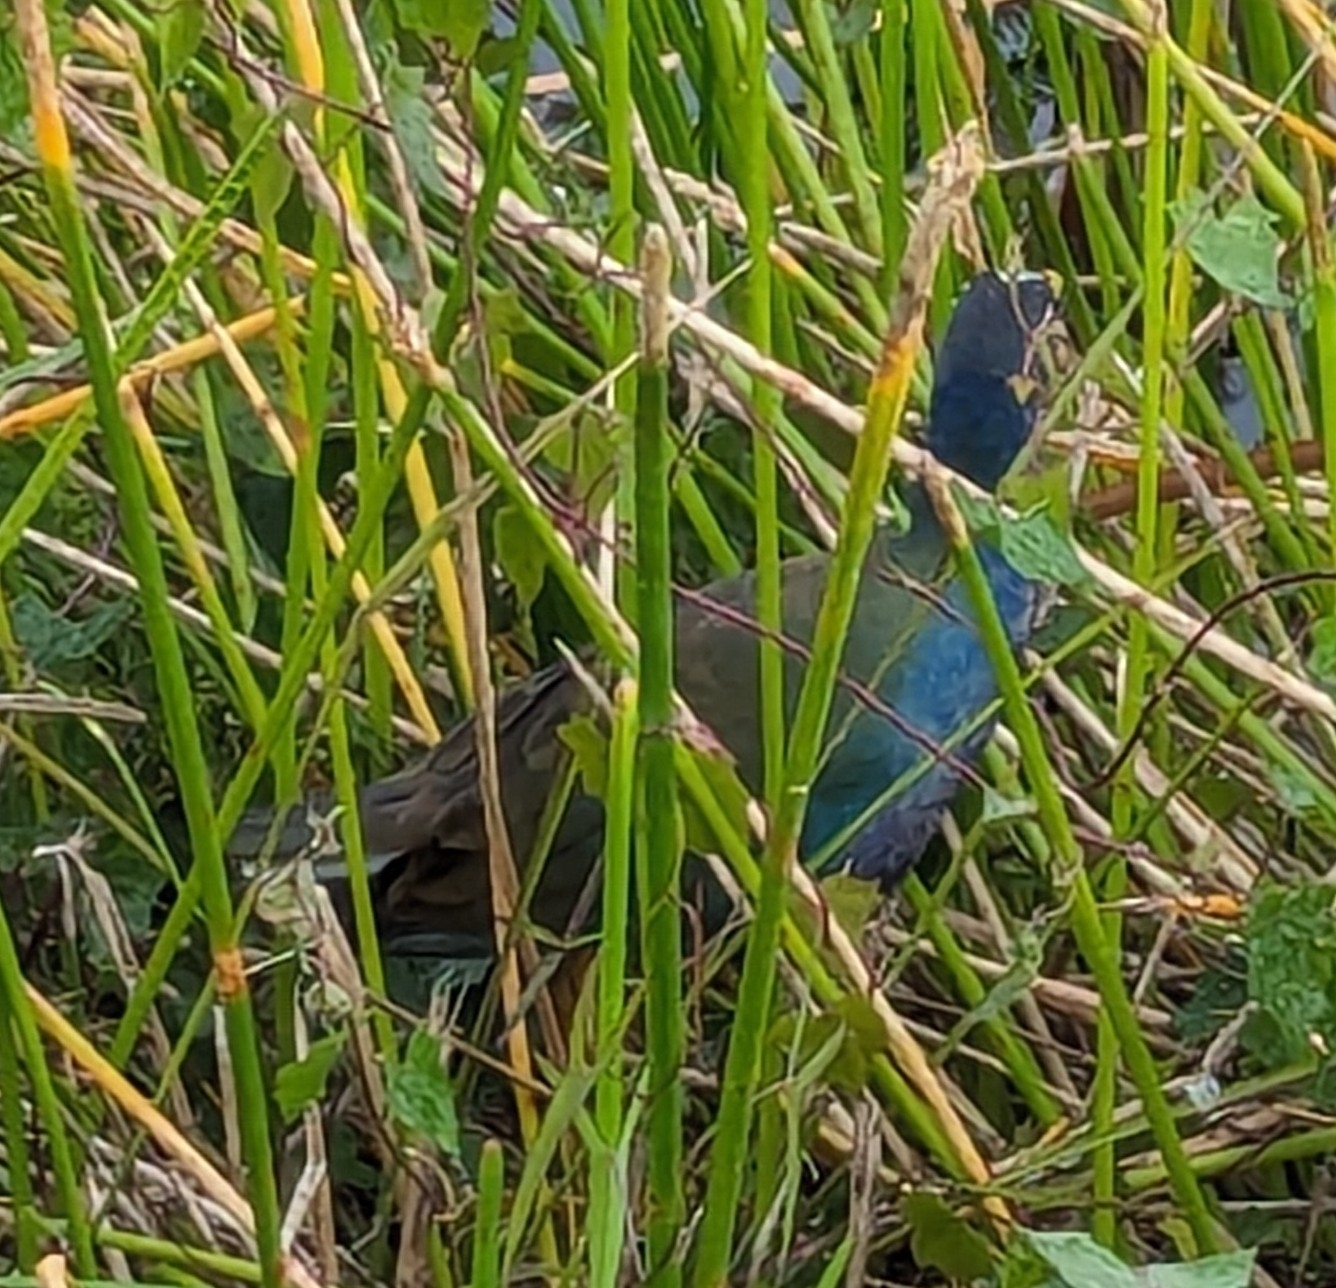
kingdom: Animalia
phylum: Chordata
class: Aves
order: Gruiformes
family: Rallidae
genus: Porphyrio
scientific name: Porphyrio martinica
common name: Purple gallinule
